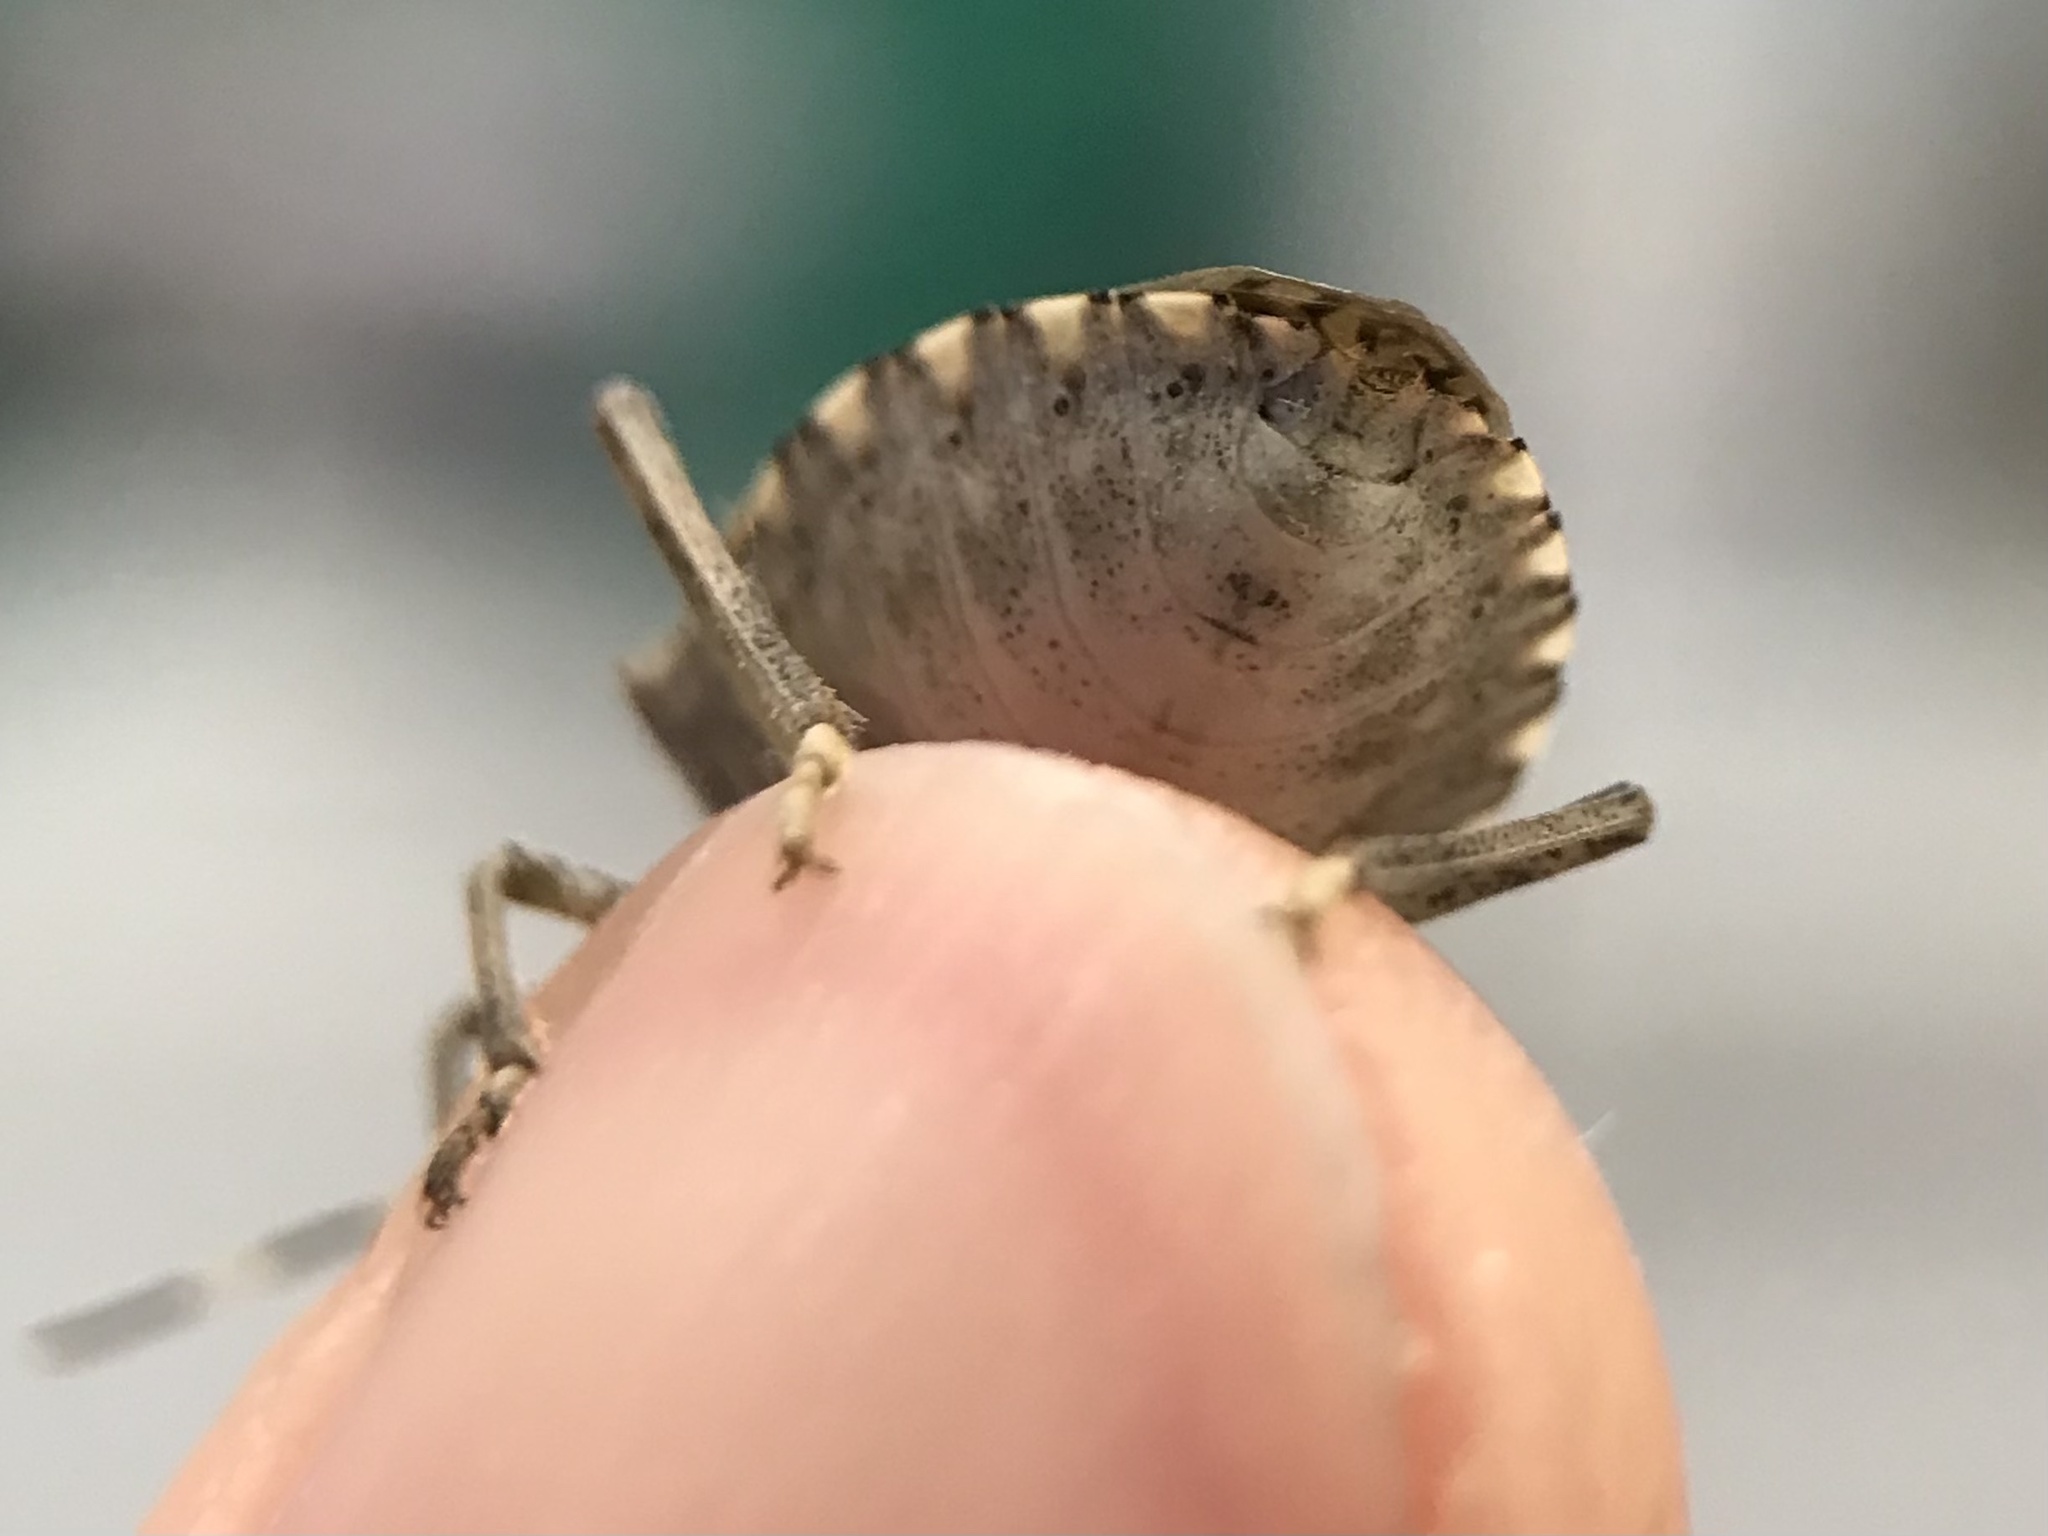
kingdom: Animalia
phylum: Arthropoda
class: Insecta
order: Hemiptera
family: Pentatomidae
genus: Halyomorpha
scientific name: Halyomorpha halys
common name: Brown marmorated stink bug
